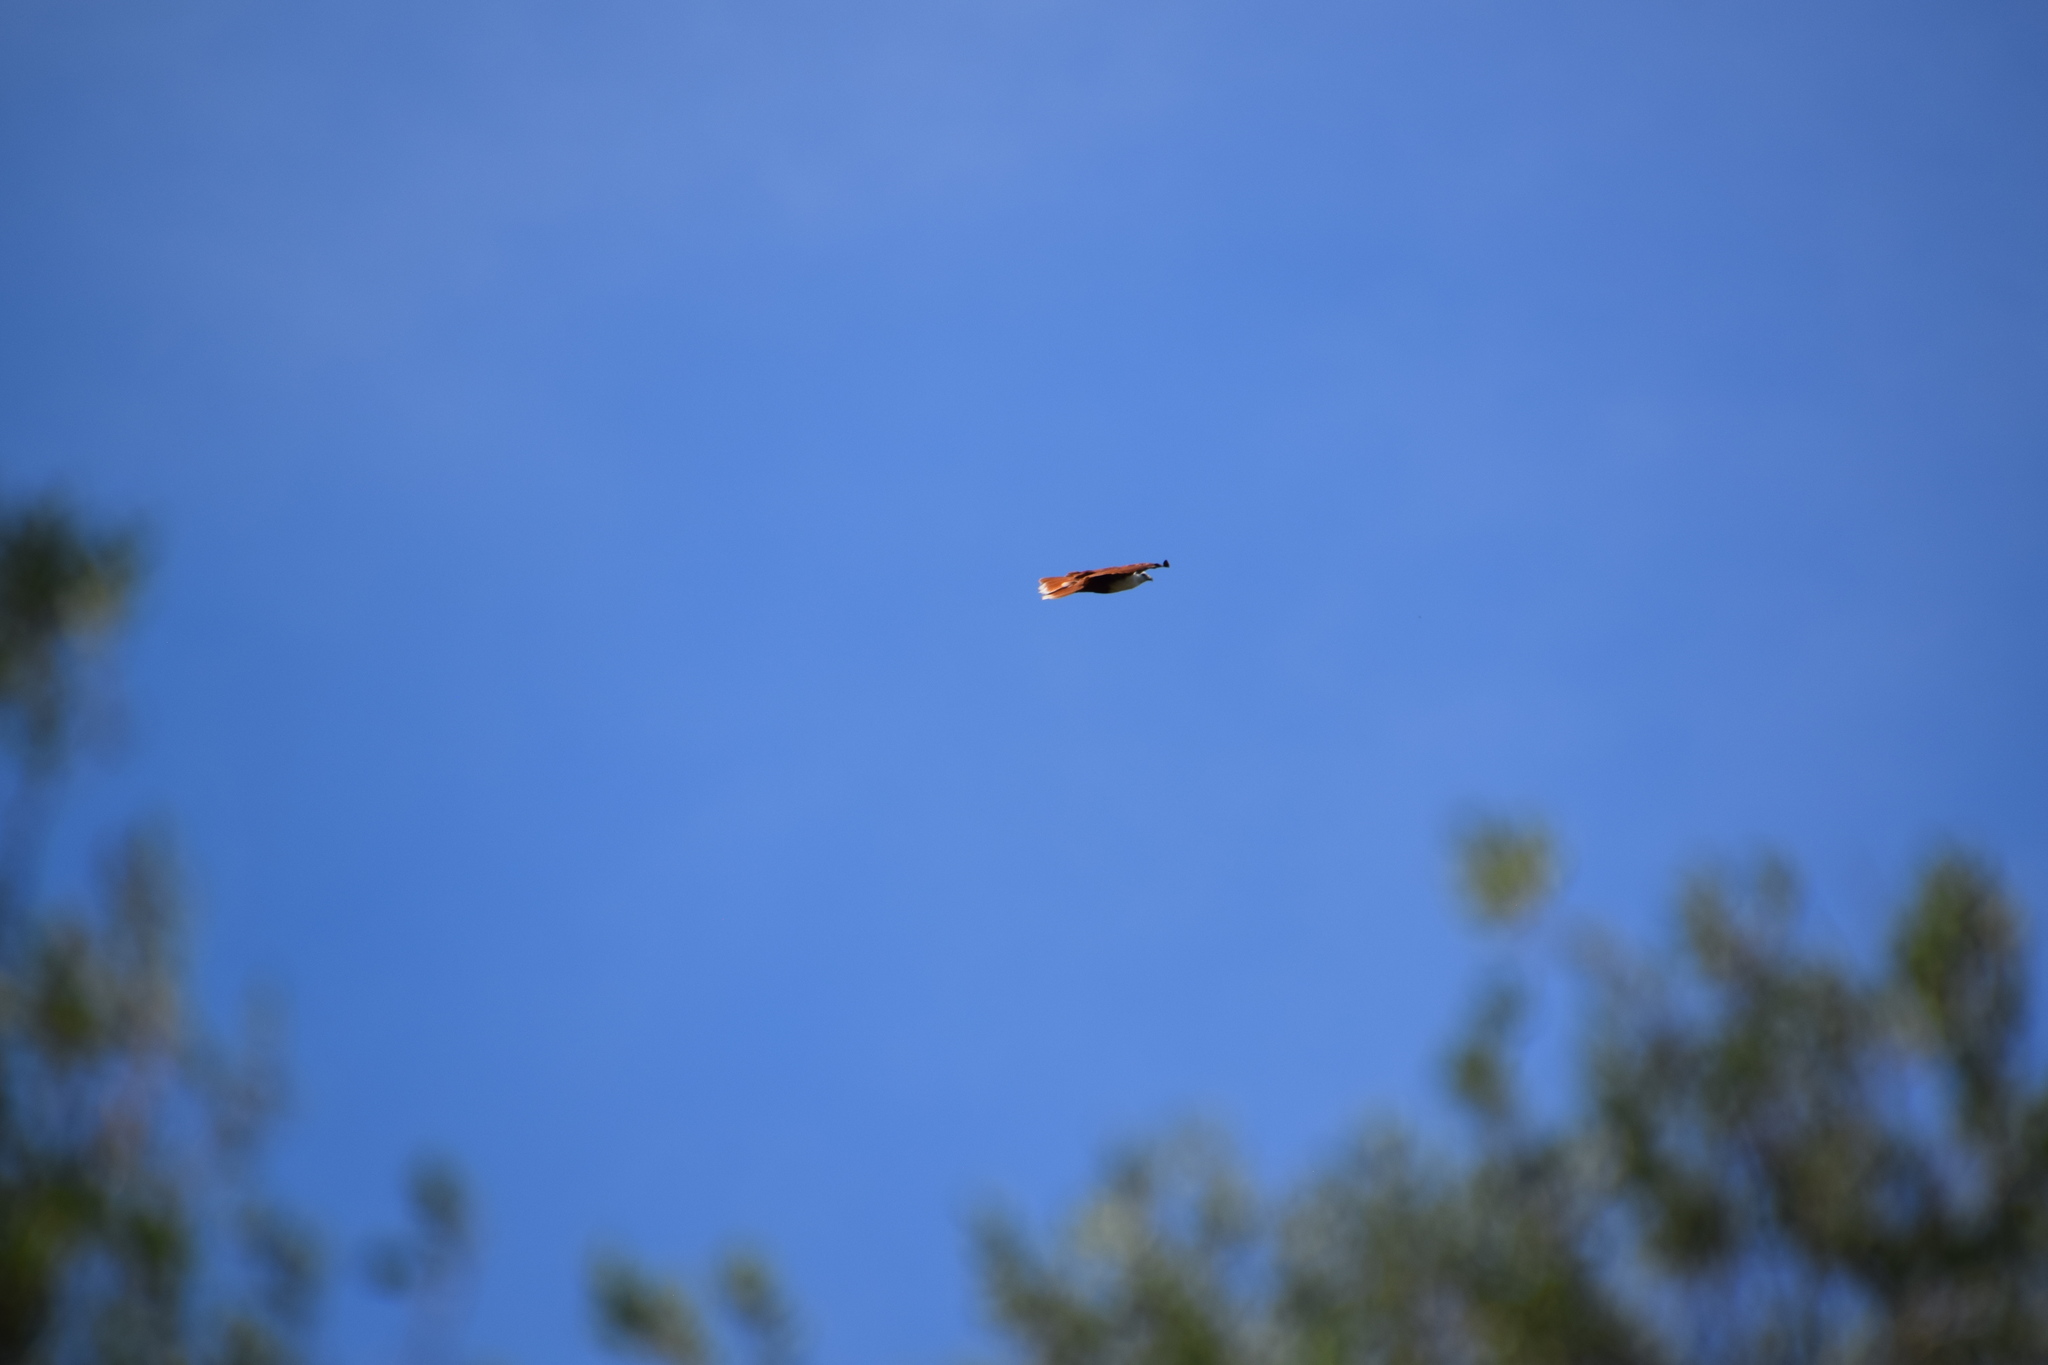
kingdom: Animalia
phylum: Chordata
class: Aves
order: Accipitriformes
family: Accipitridae
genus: Haliastur
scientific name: Haliastur indus
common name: Brahminy kite
